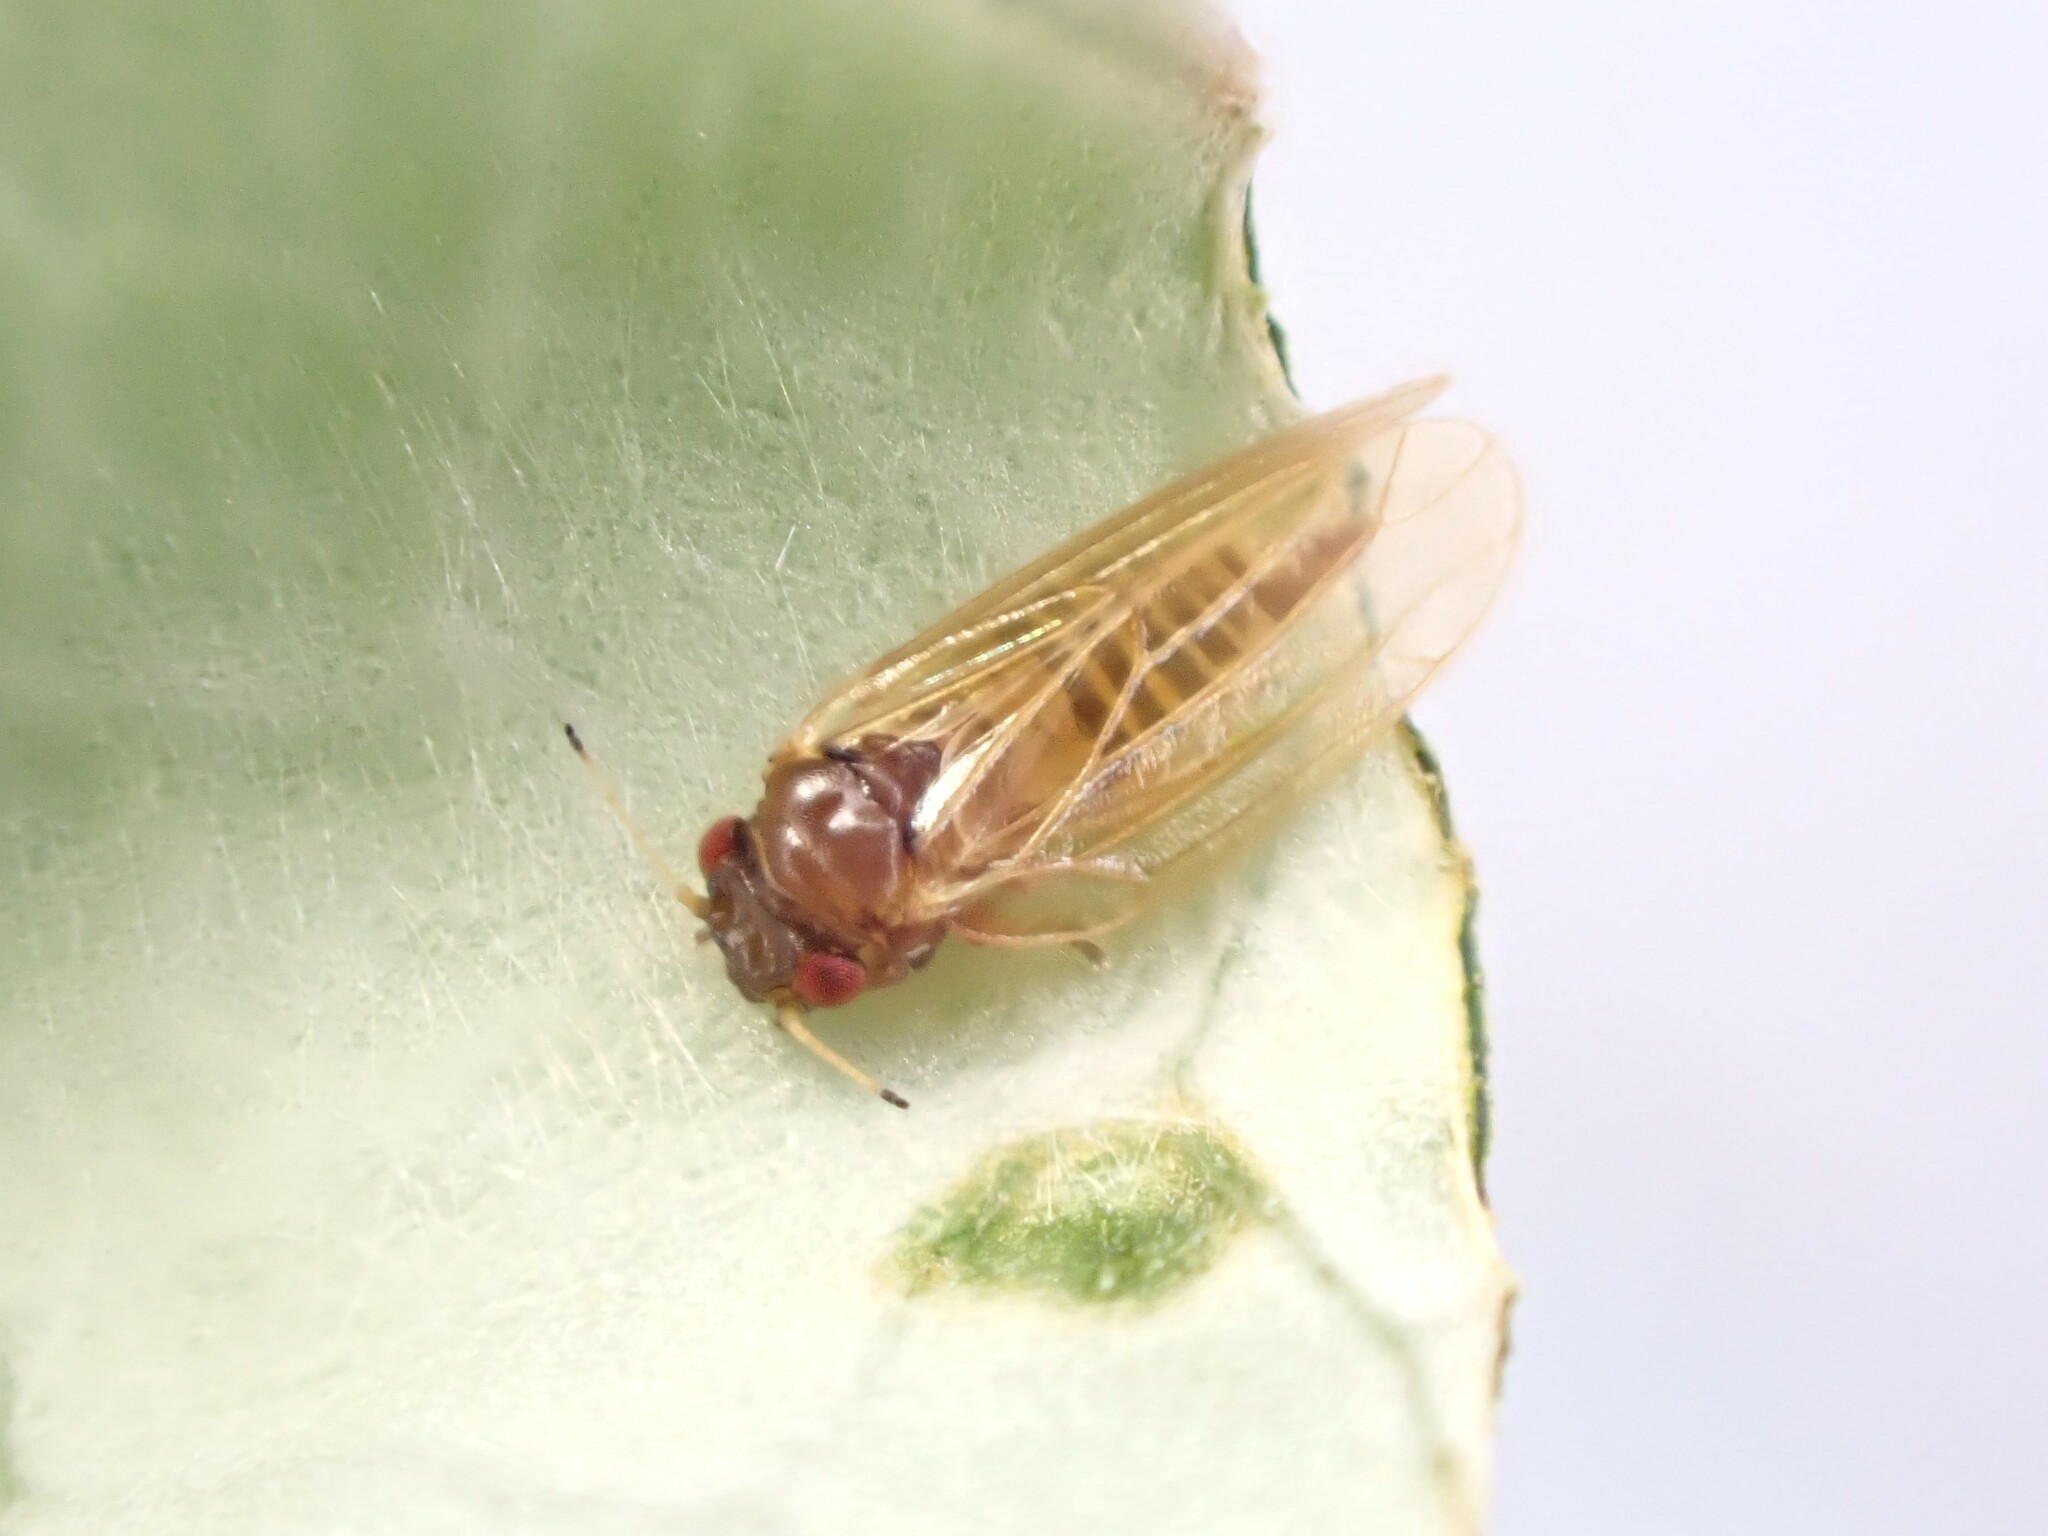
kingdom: Animalia
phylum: Arthropoda
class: Insecta
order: Hemiptera
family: Aphalaridae
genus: Ctenarytaina
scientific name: Ctenarytaina fuchsiae
